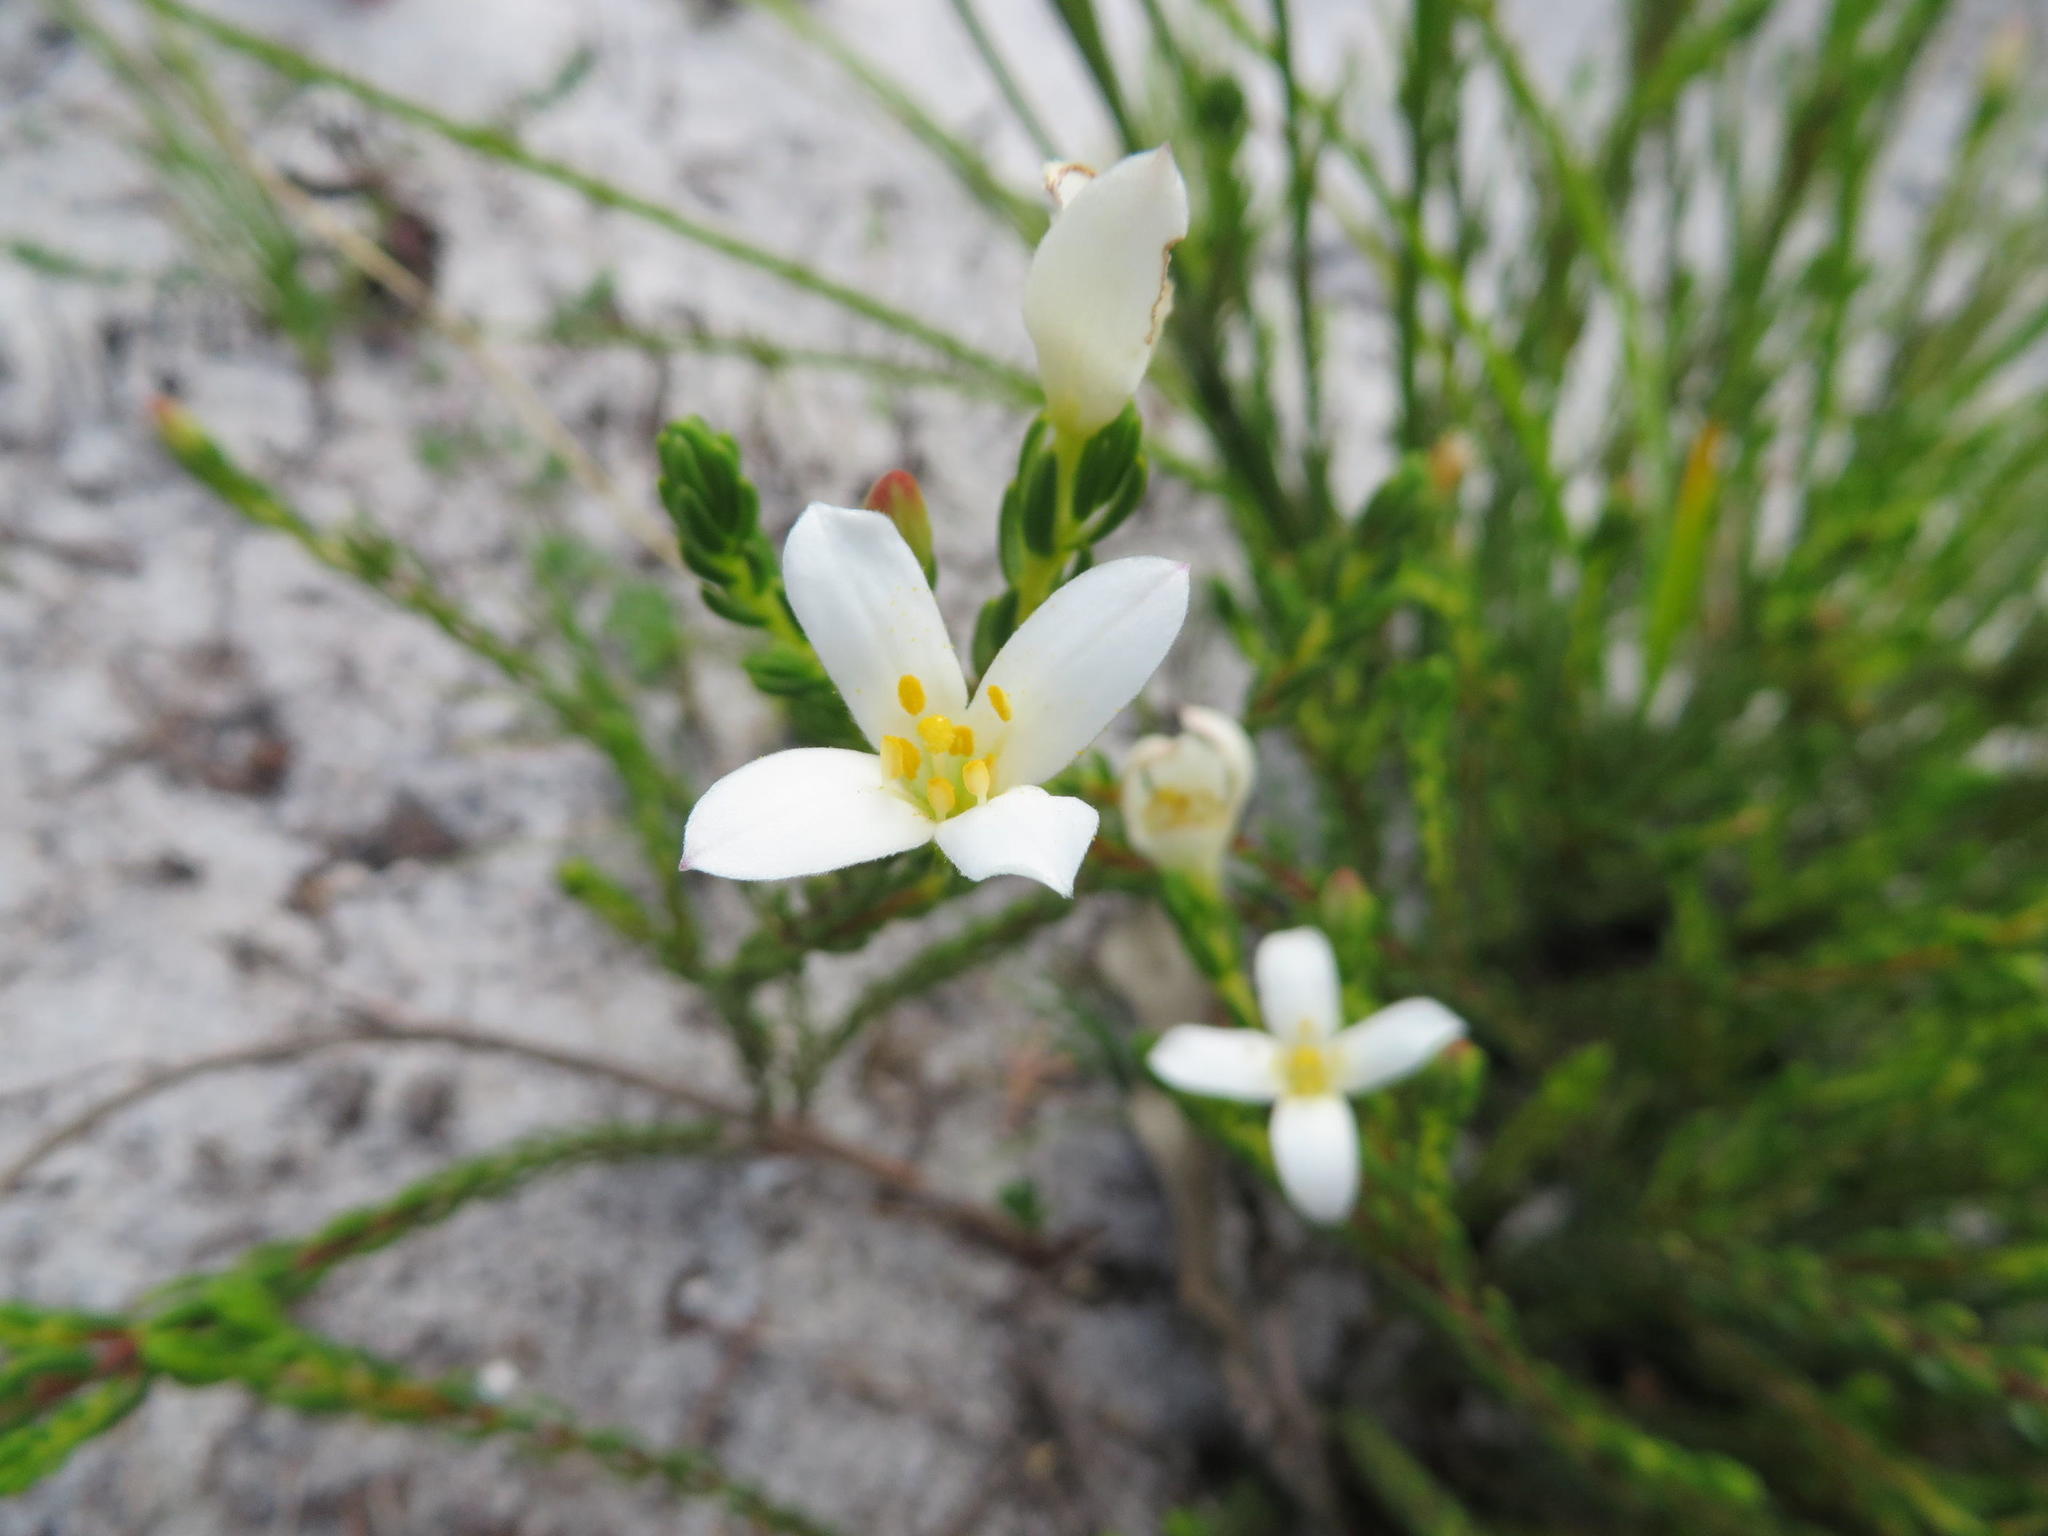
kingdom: Plantae
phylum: Tracheophyta
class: Magnoliopsida
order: Malvales
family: Thymelaeaceae
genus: Lachnaea
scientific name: Lachnaea grandiflora
